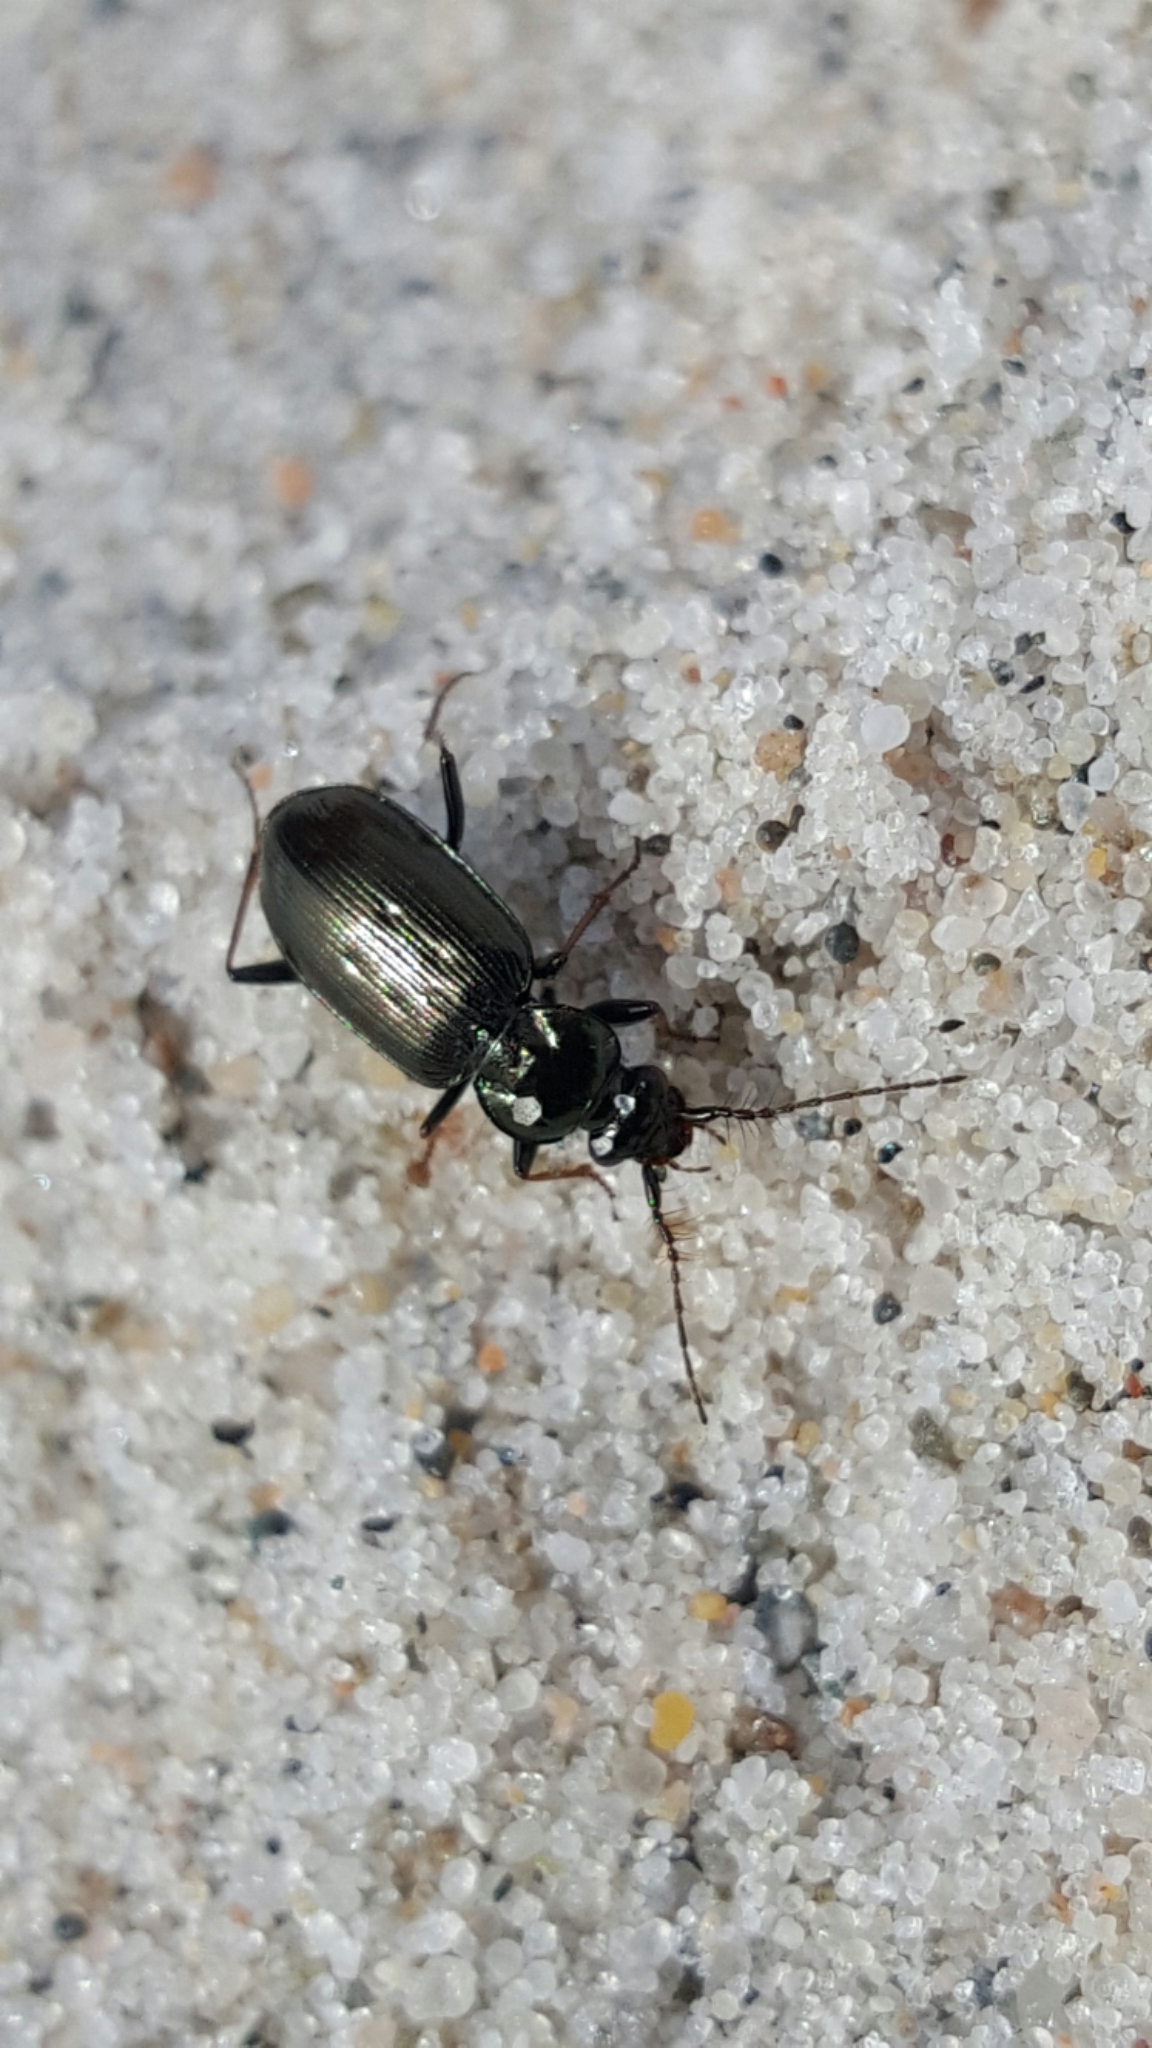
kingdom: Animalia
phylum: Arthropoda
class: Insecta
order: Coleoptera
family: Carabidae
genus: Loricera
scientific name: Loricera pilicornis
